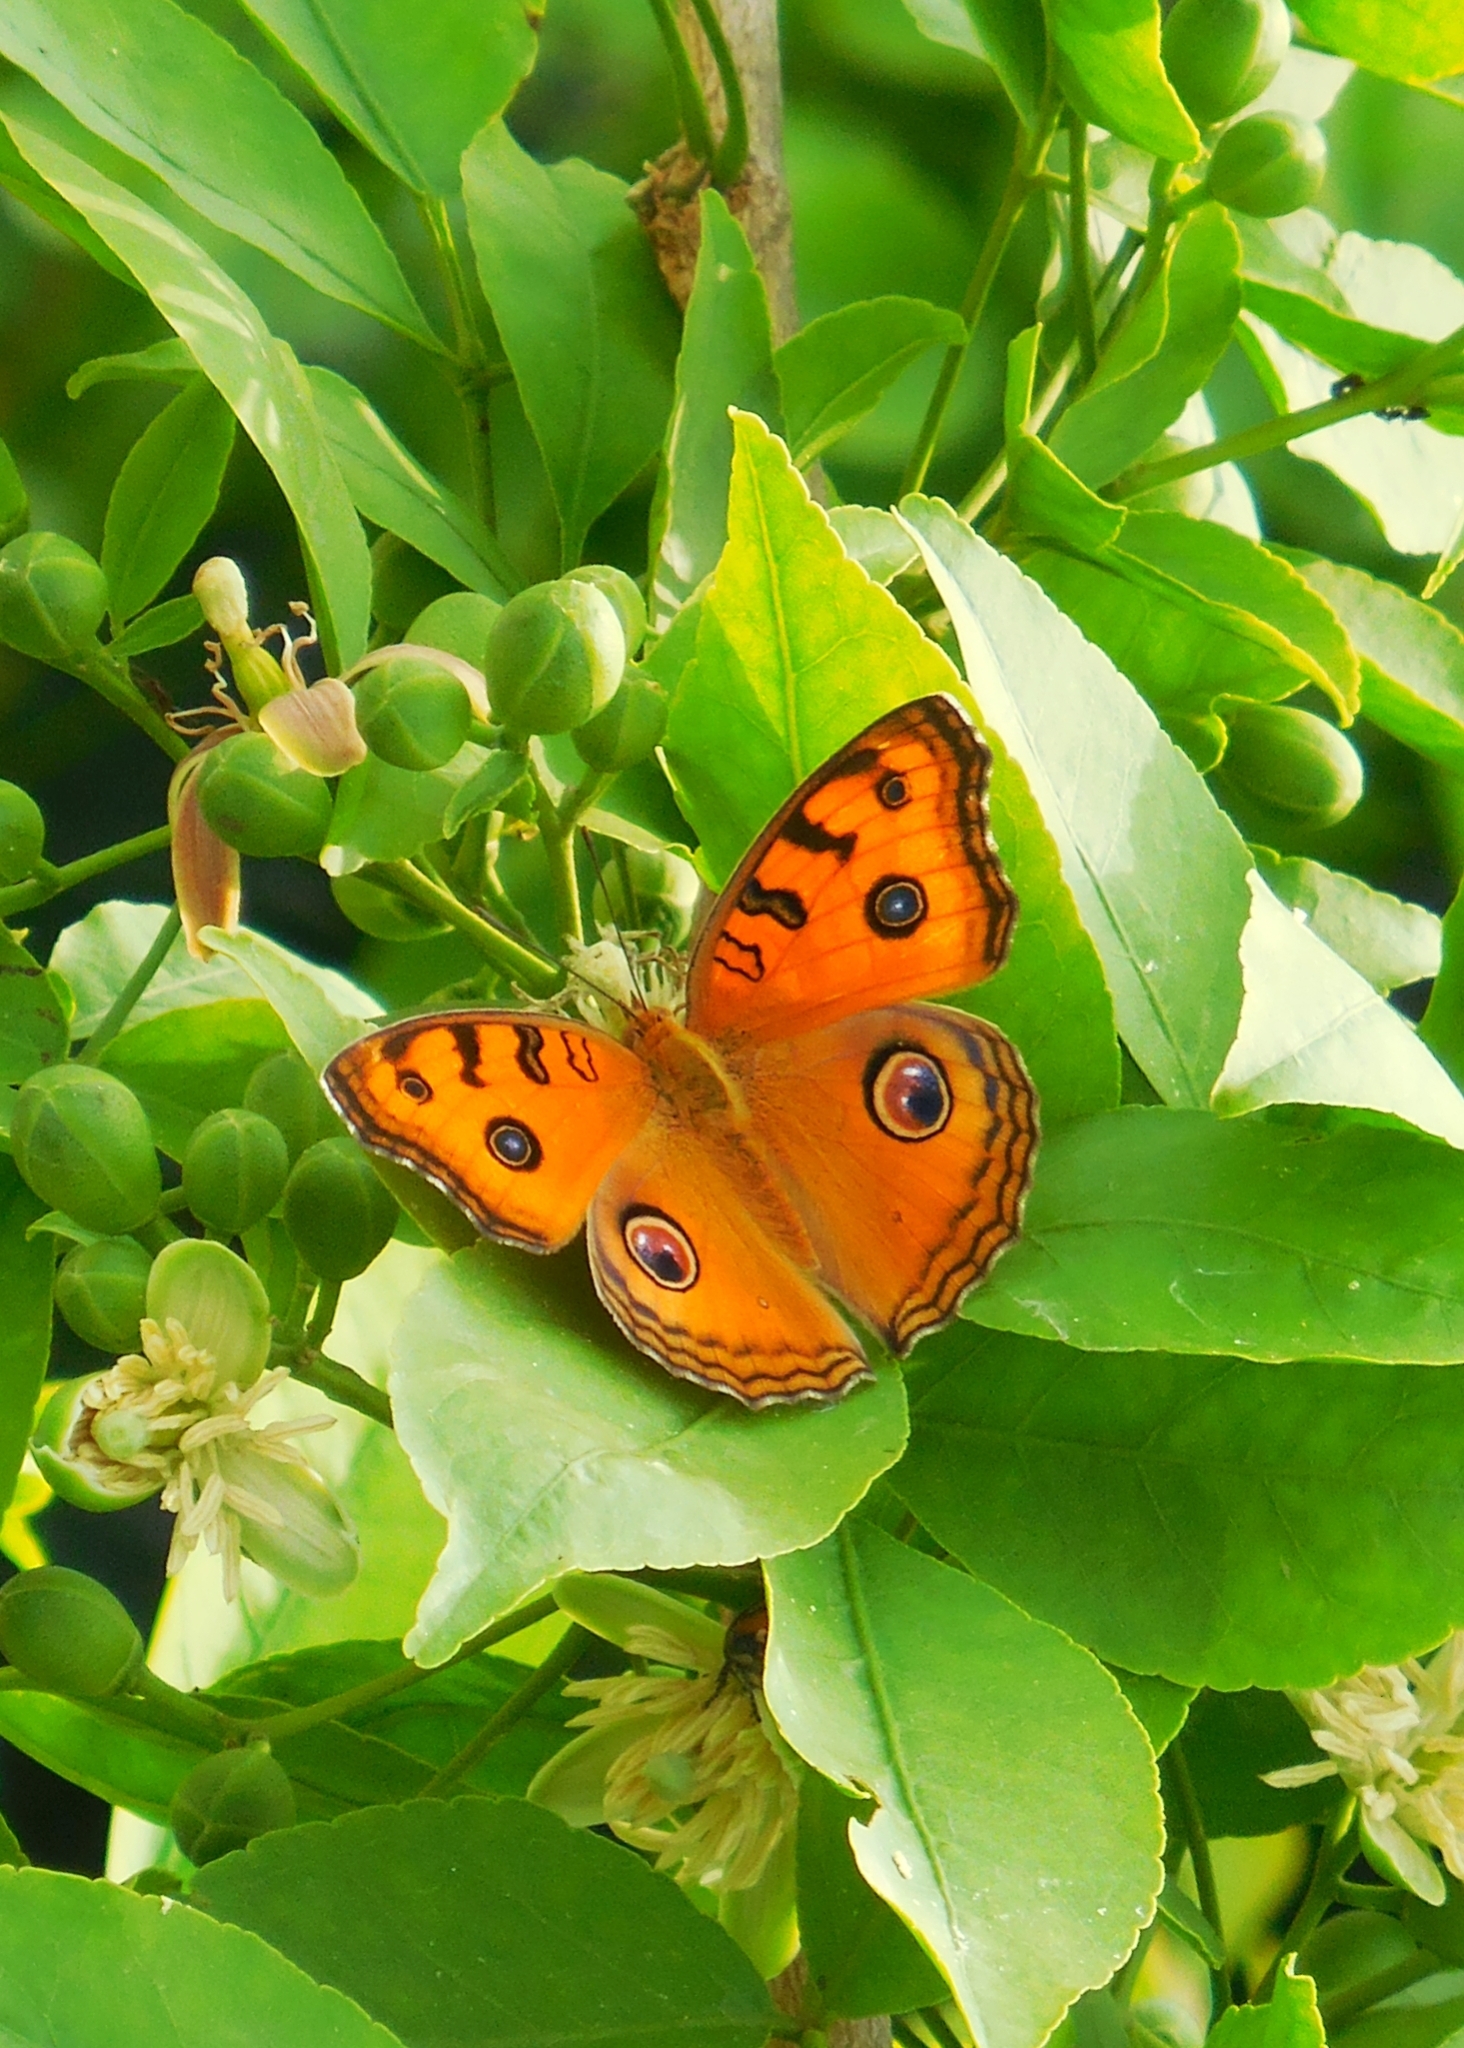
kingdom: Animalia
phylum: Arthropoda
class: Insecta
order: Lepidoptera
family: Nymphalidae
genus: Junonia
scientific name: Junonia almana
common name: Peacock pansy
